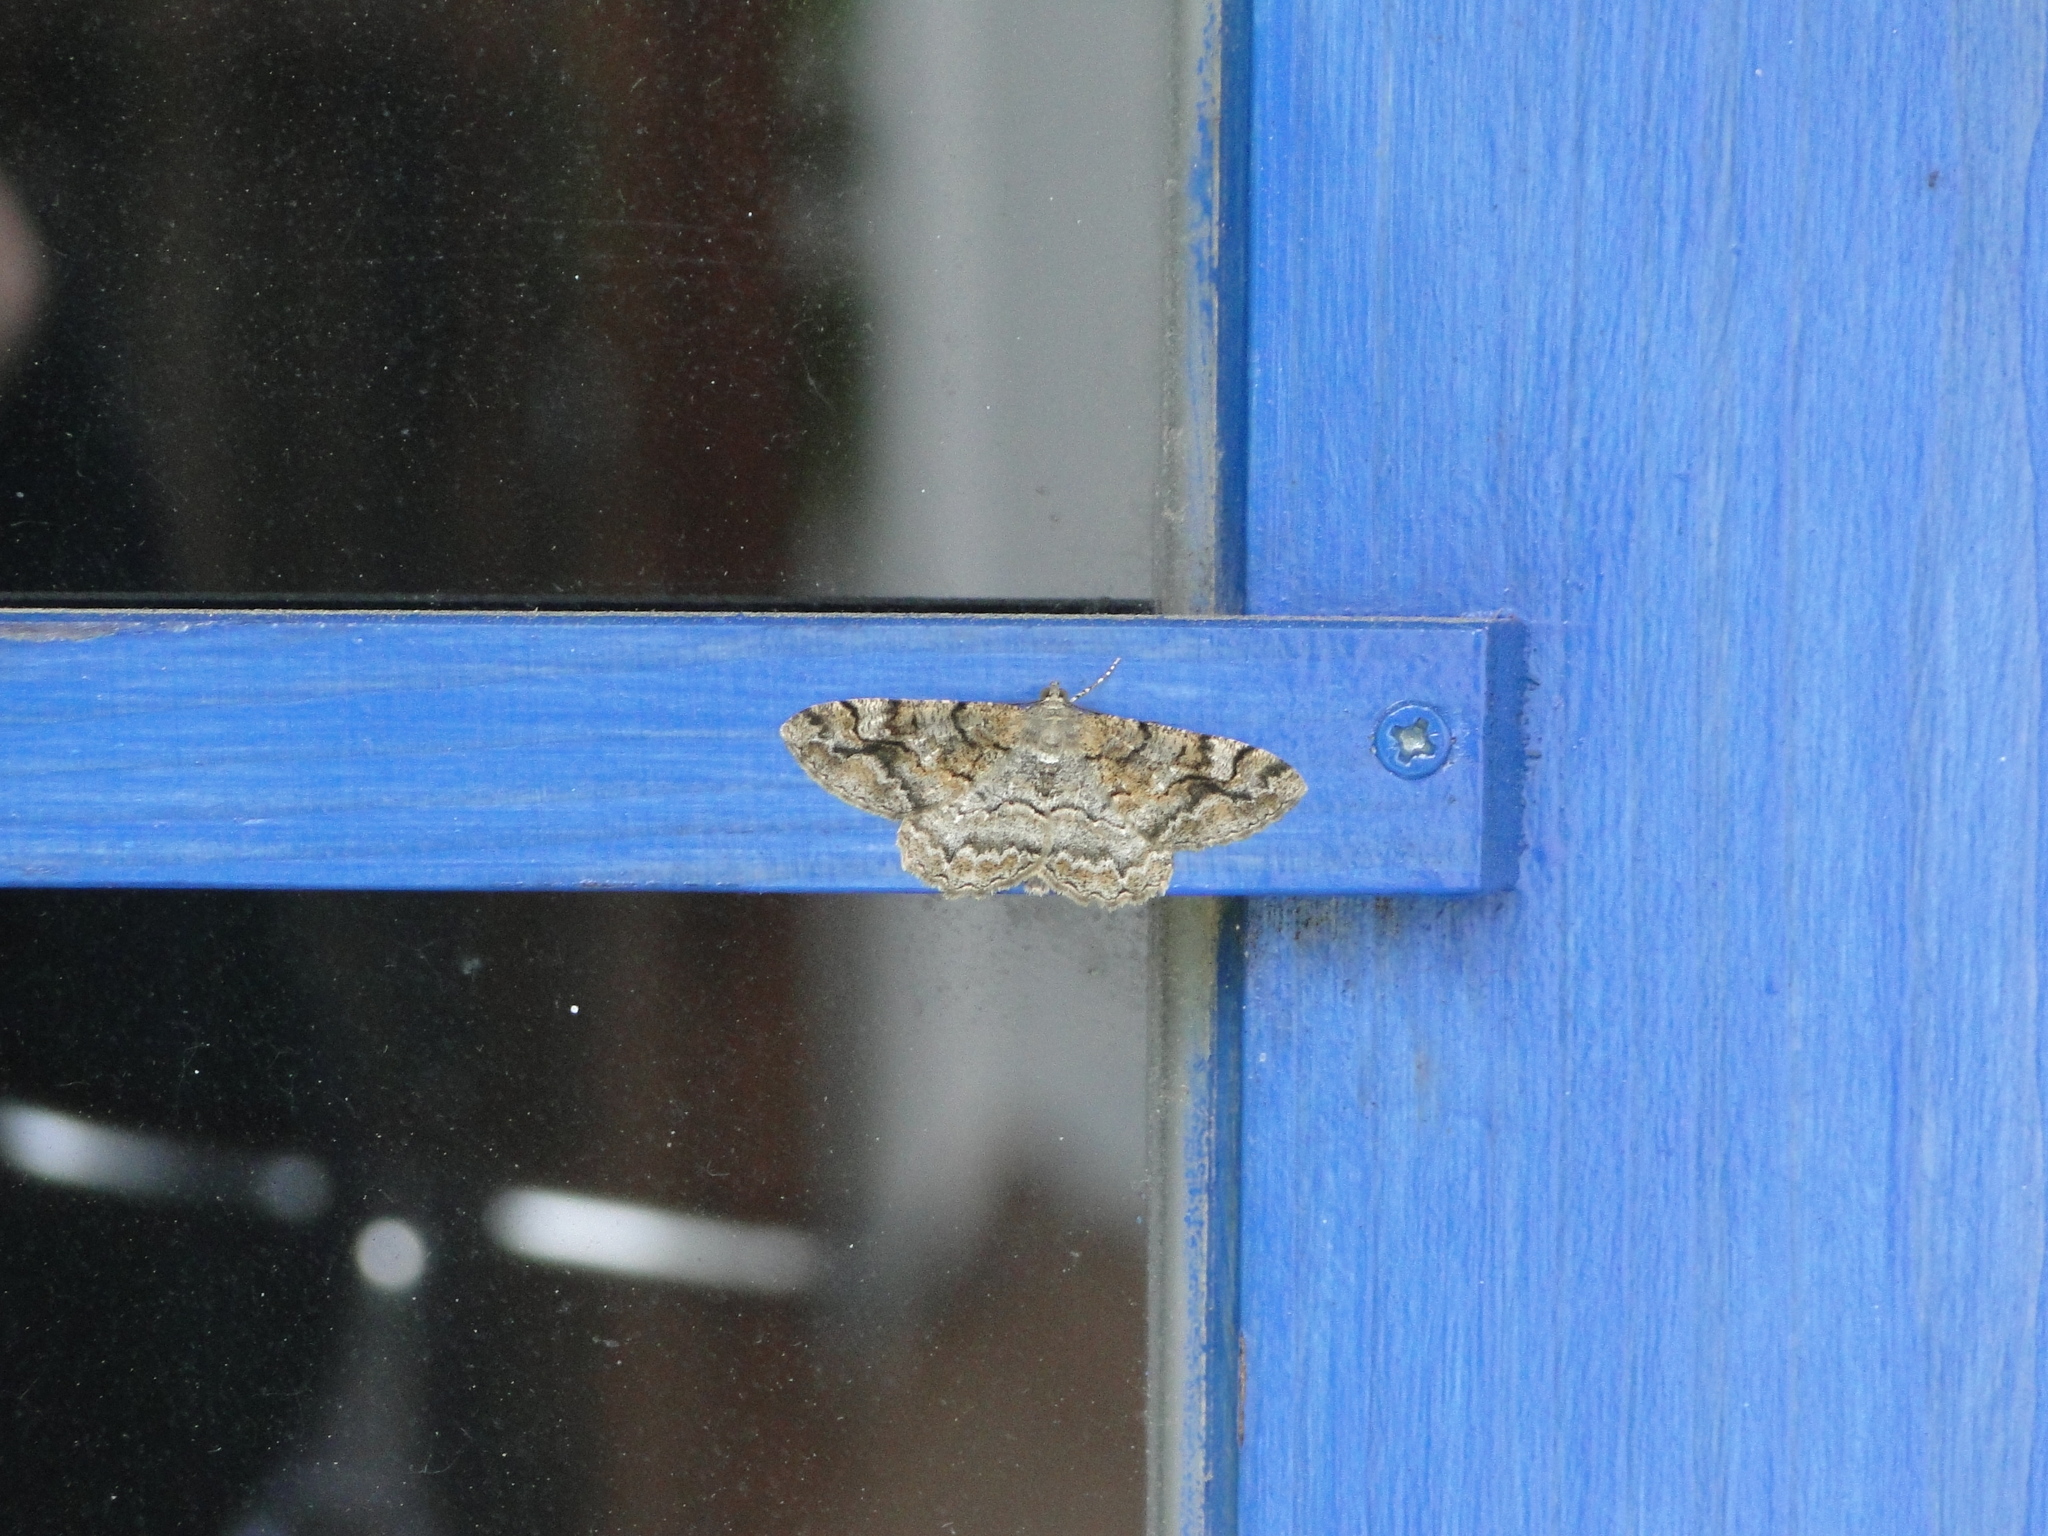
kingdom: Animalia
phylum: Arthropoda
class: Insecta
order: Lepidoptera
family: Geometridae
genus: Alcis
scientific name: Alcis repandata
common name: Mottled beauty
